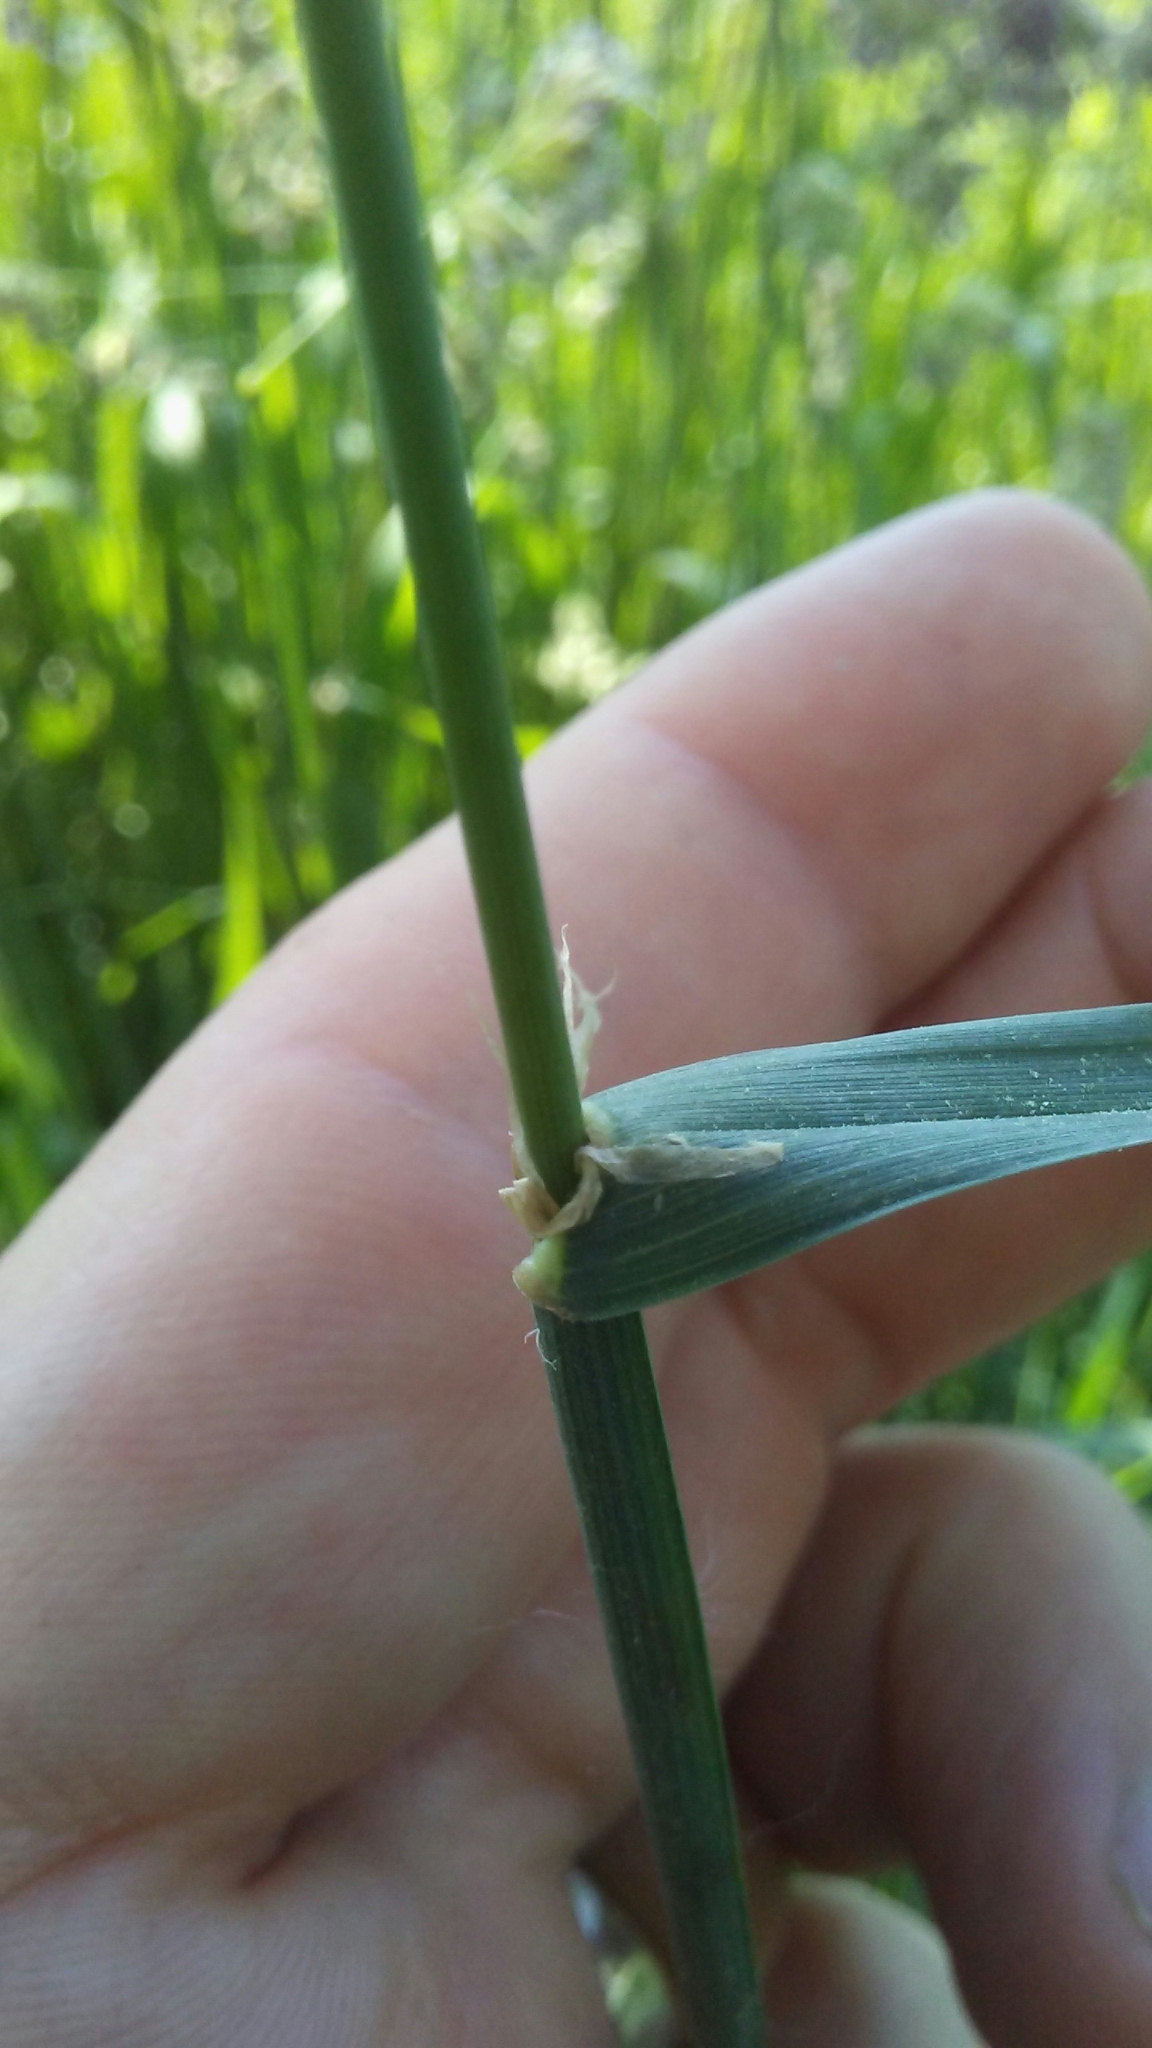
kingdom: Plantae
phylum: Tracheophyta
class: Liliopsida
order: Poales
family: Poaceae
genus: Dactylis
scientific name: Dactylis glomerata
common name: Orchardgrass
